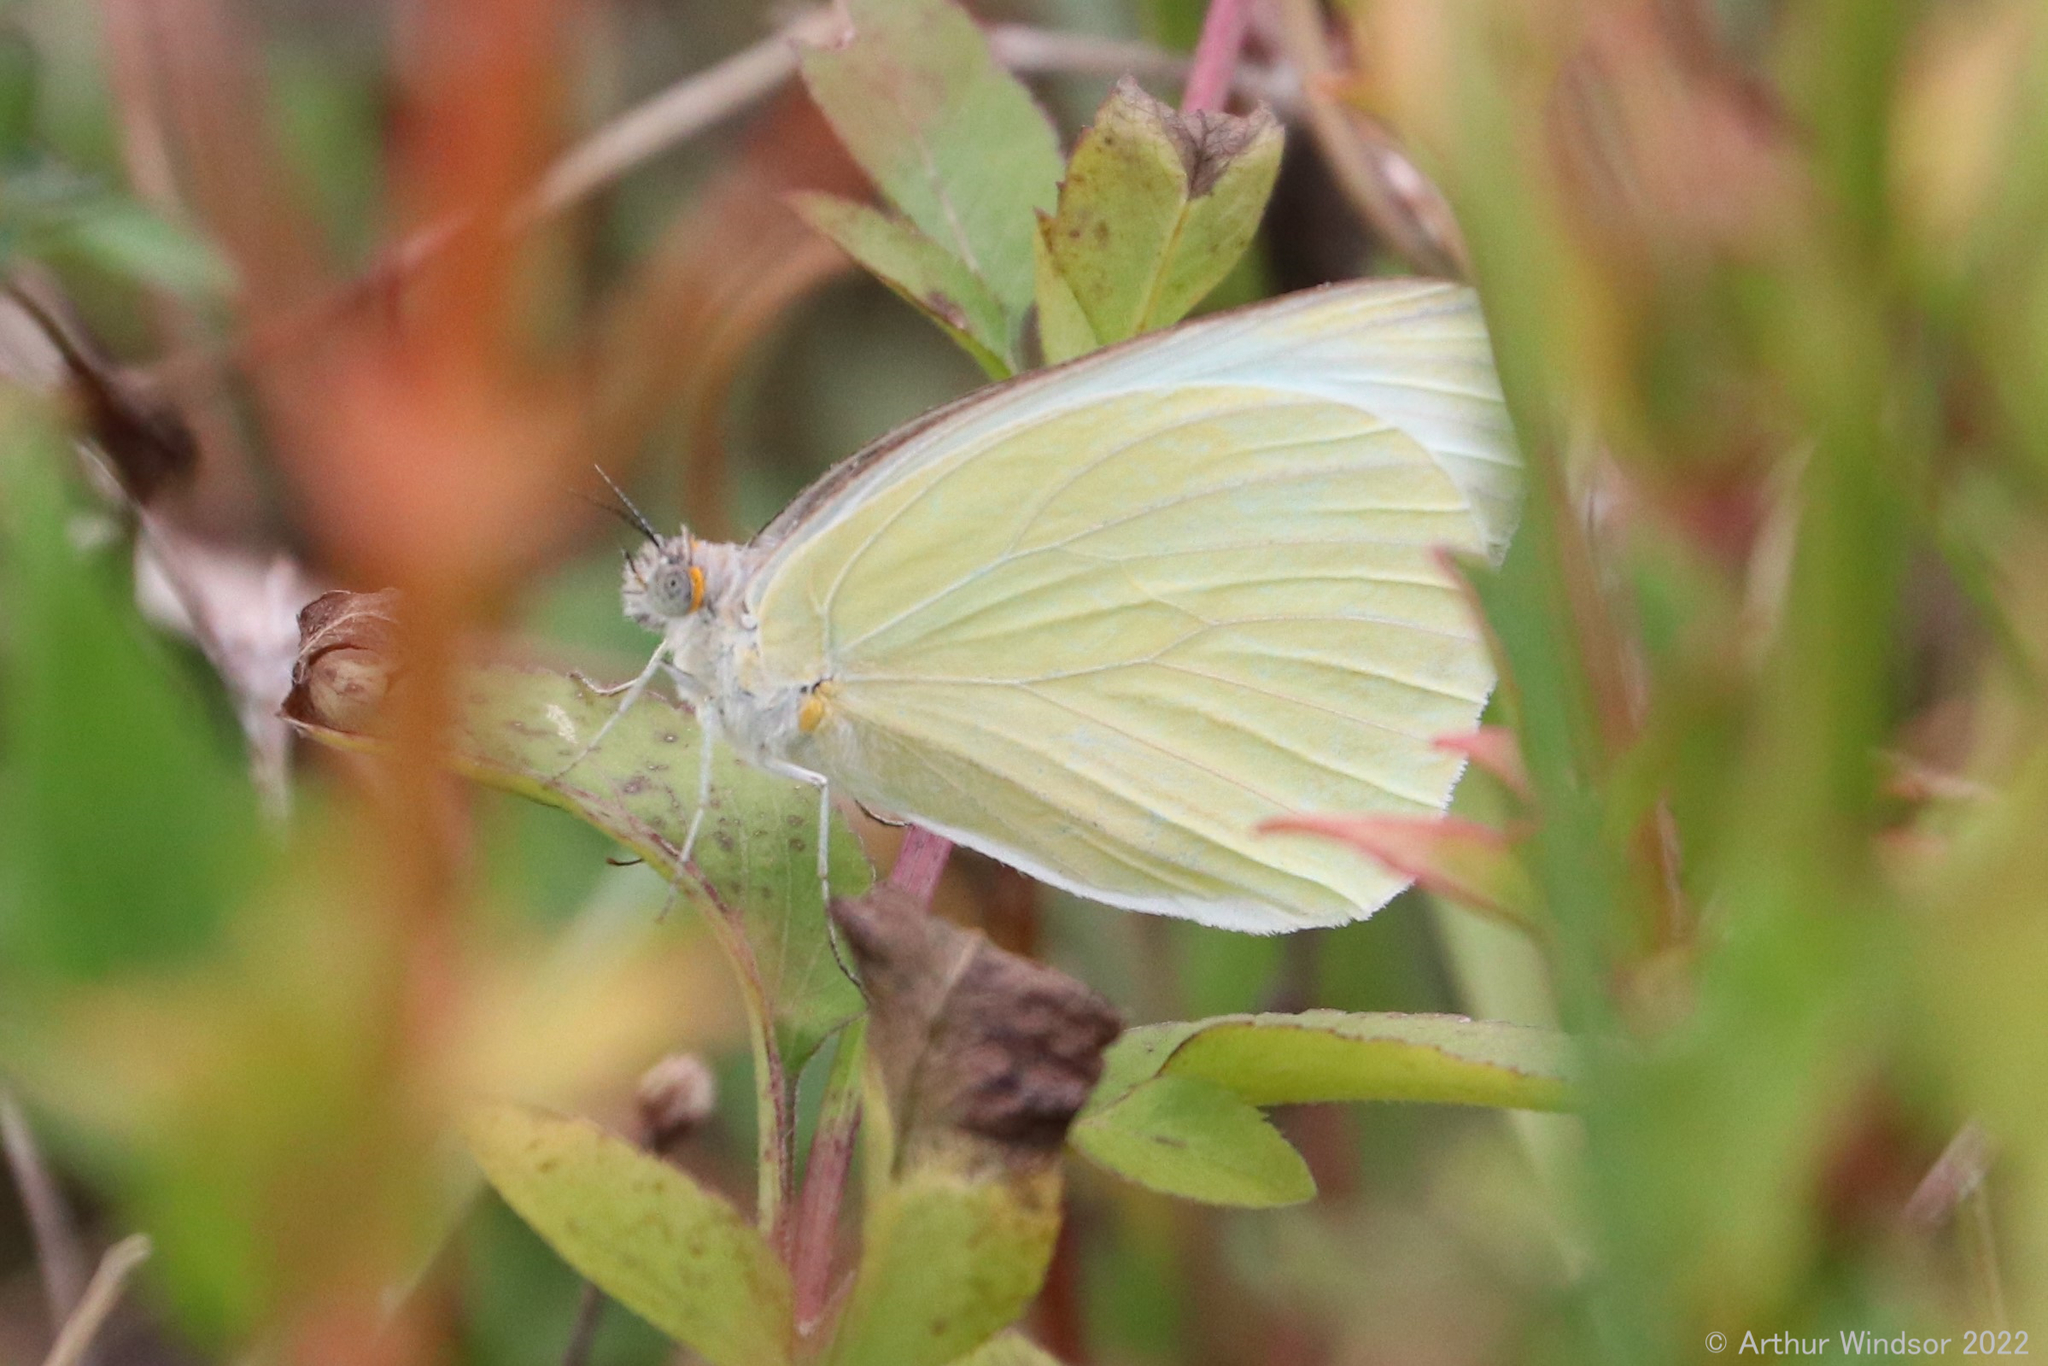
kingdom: Animalia
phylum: Arthropoda
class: Insecta
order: Lepidoptera
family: Pieridae
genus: Ascia
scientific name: Ascia monuste
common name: Great southern white
